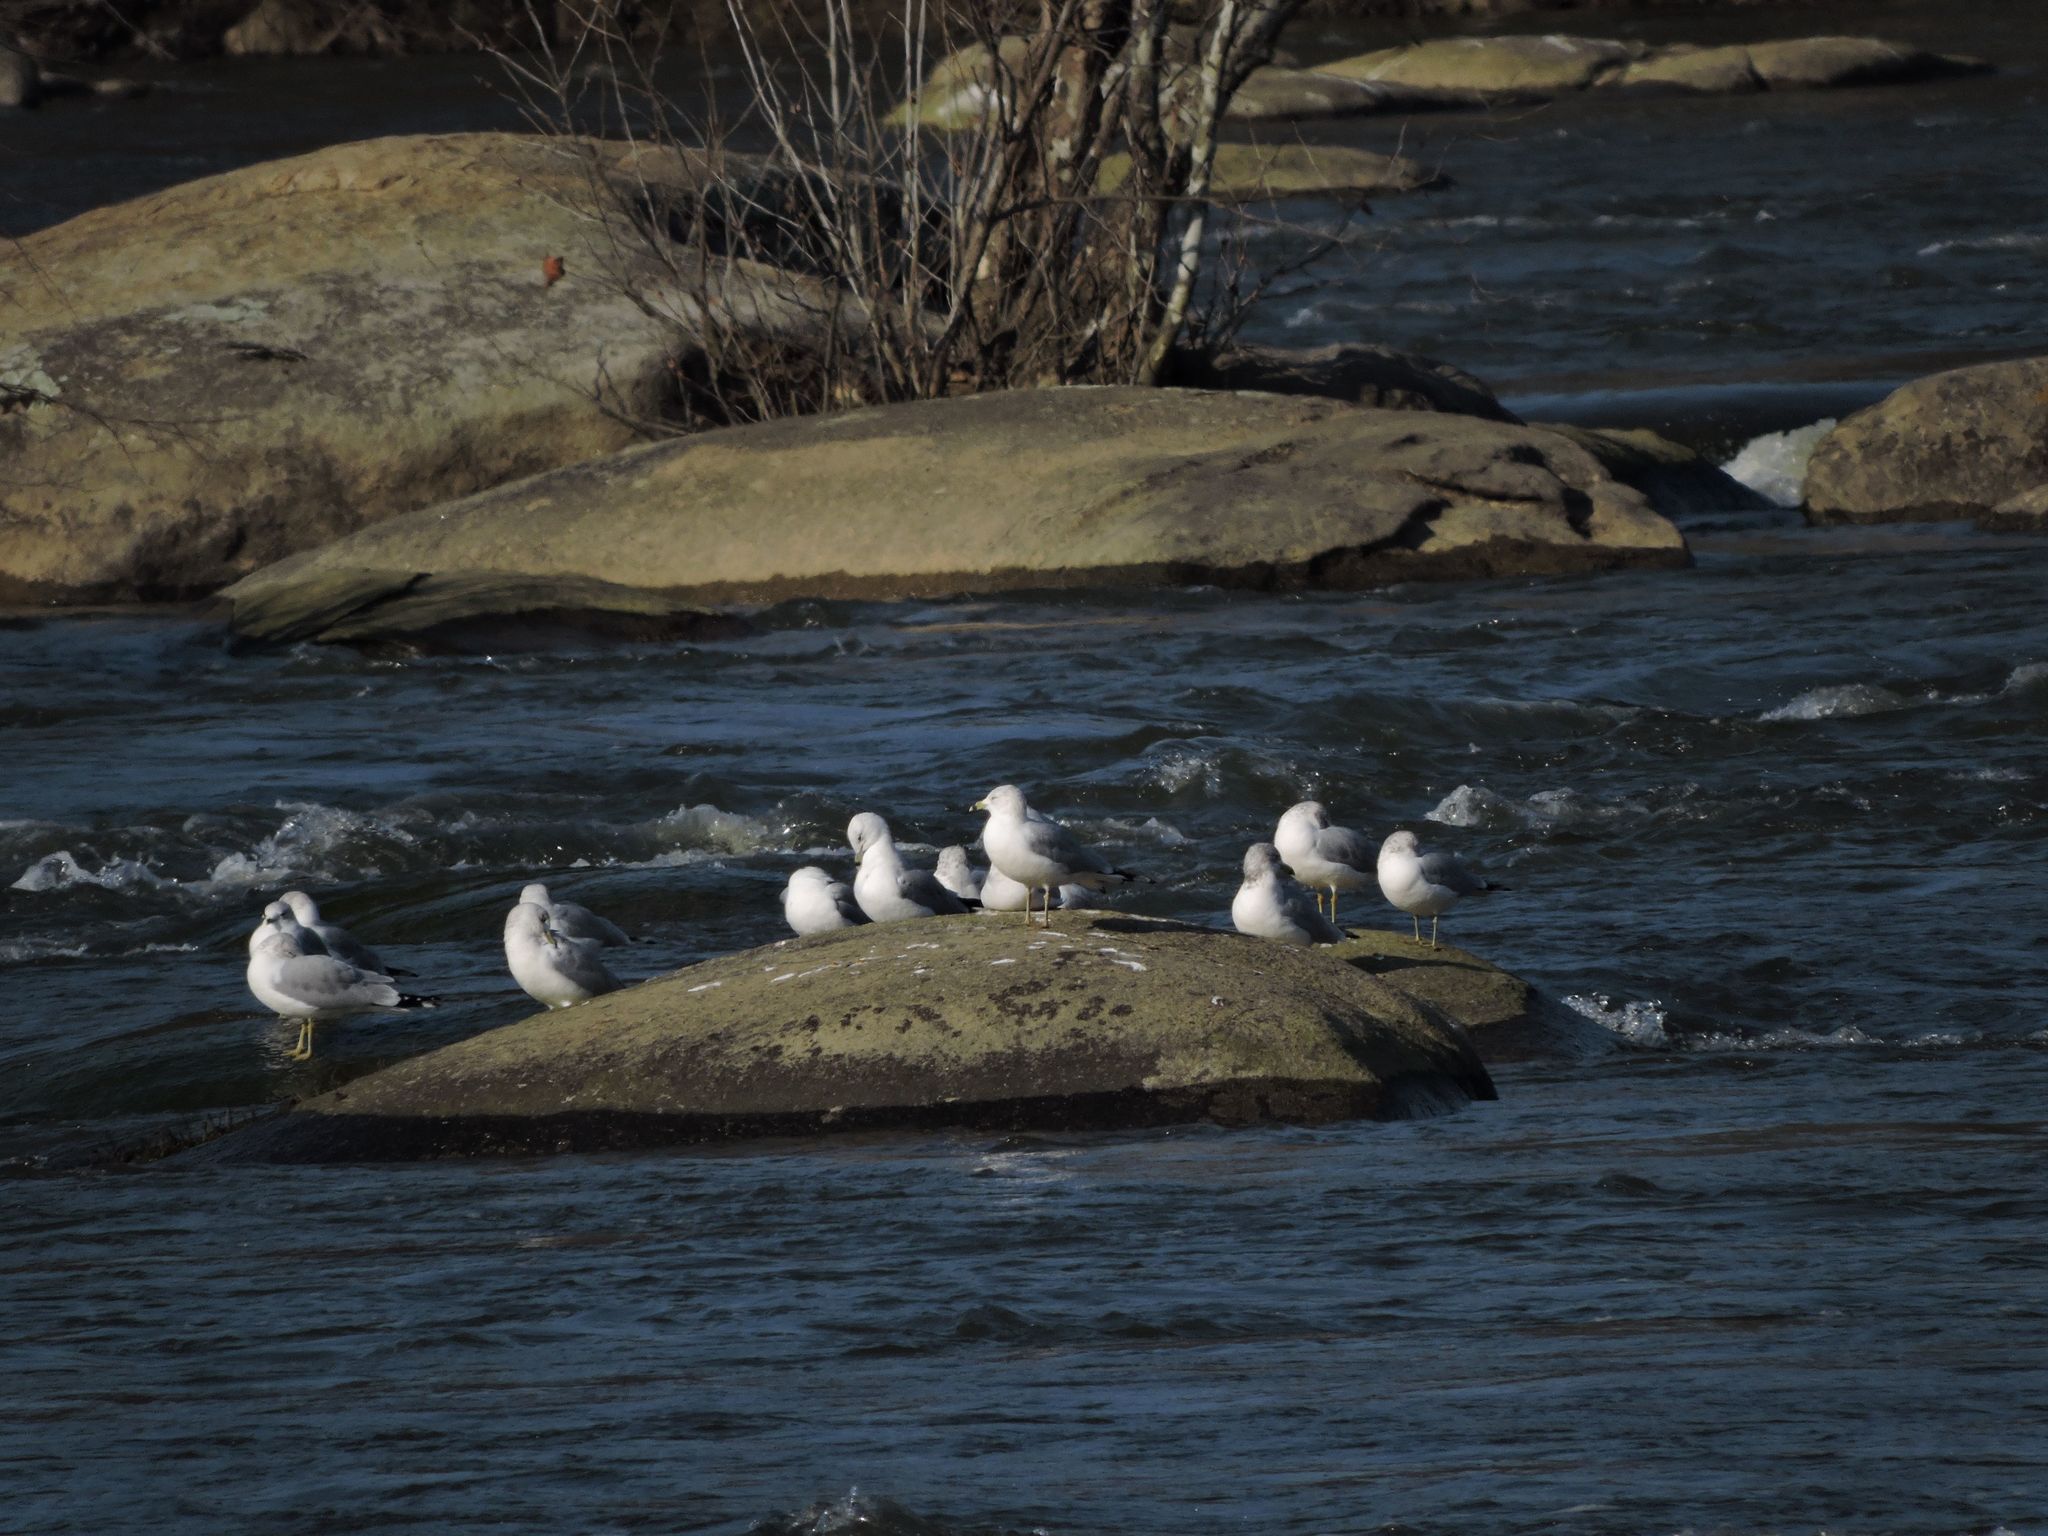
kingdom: Animalia
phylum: Chordata
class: Aves
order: Charadriiformes
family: Laridae
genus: Larus
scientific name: Larus delawarensis
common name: Ring-billed gull
